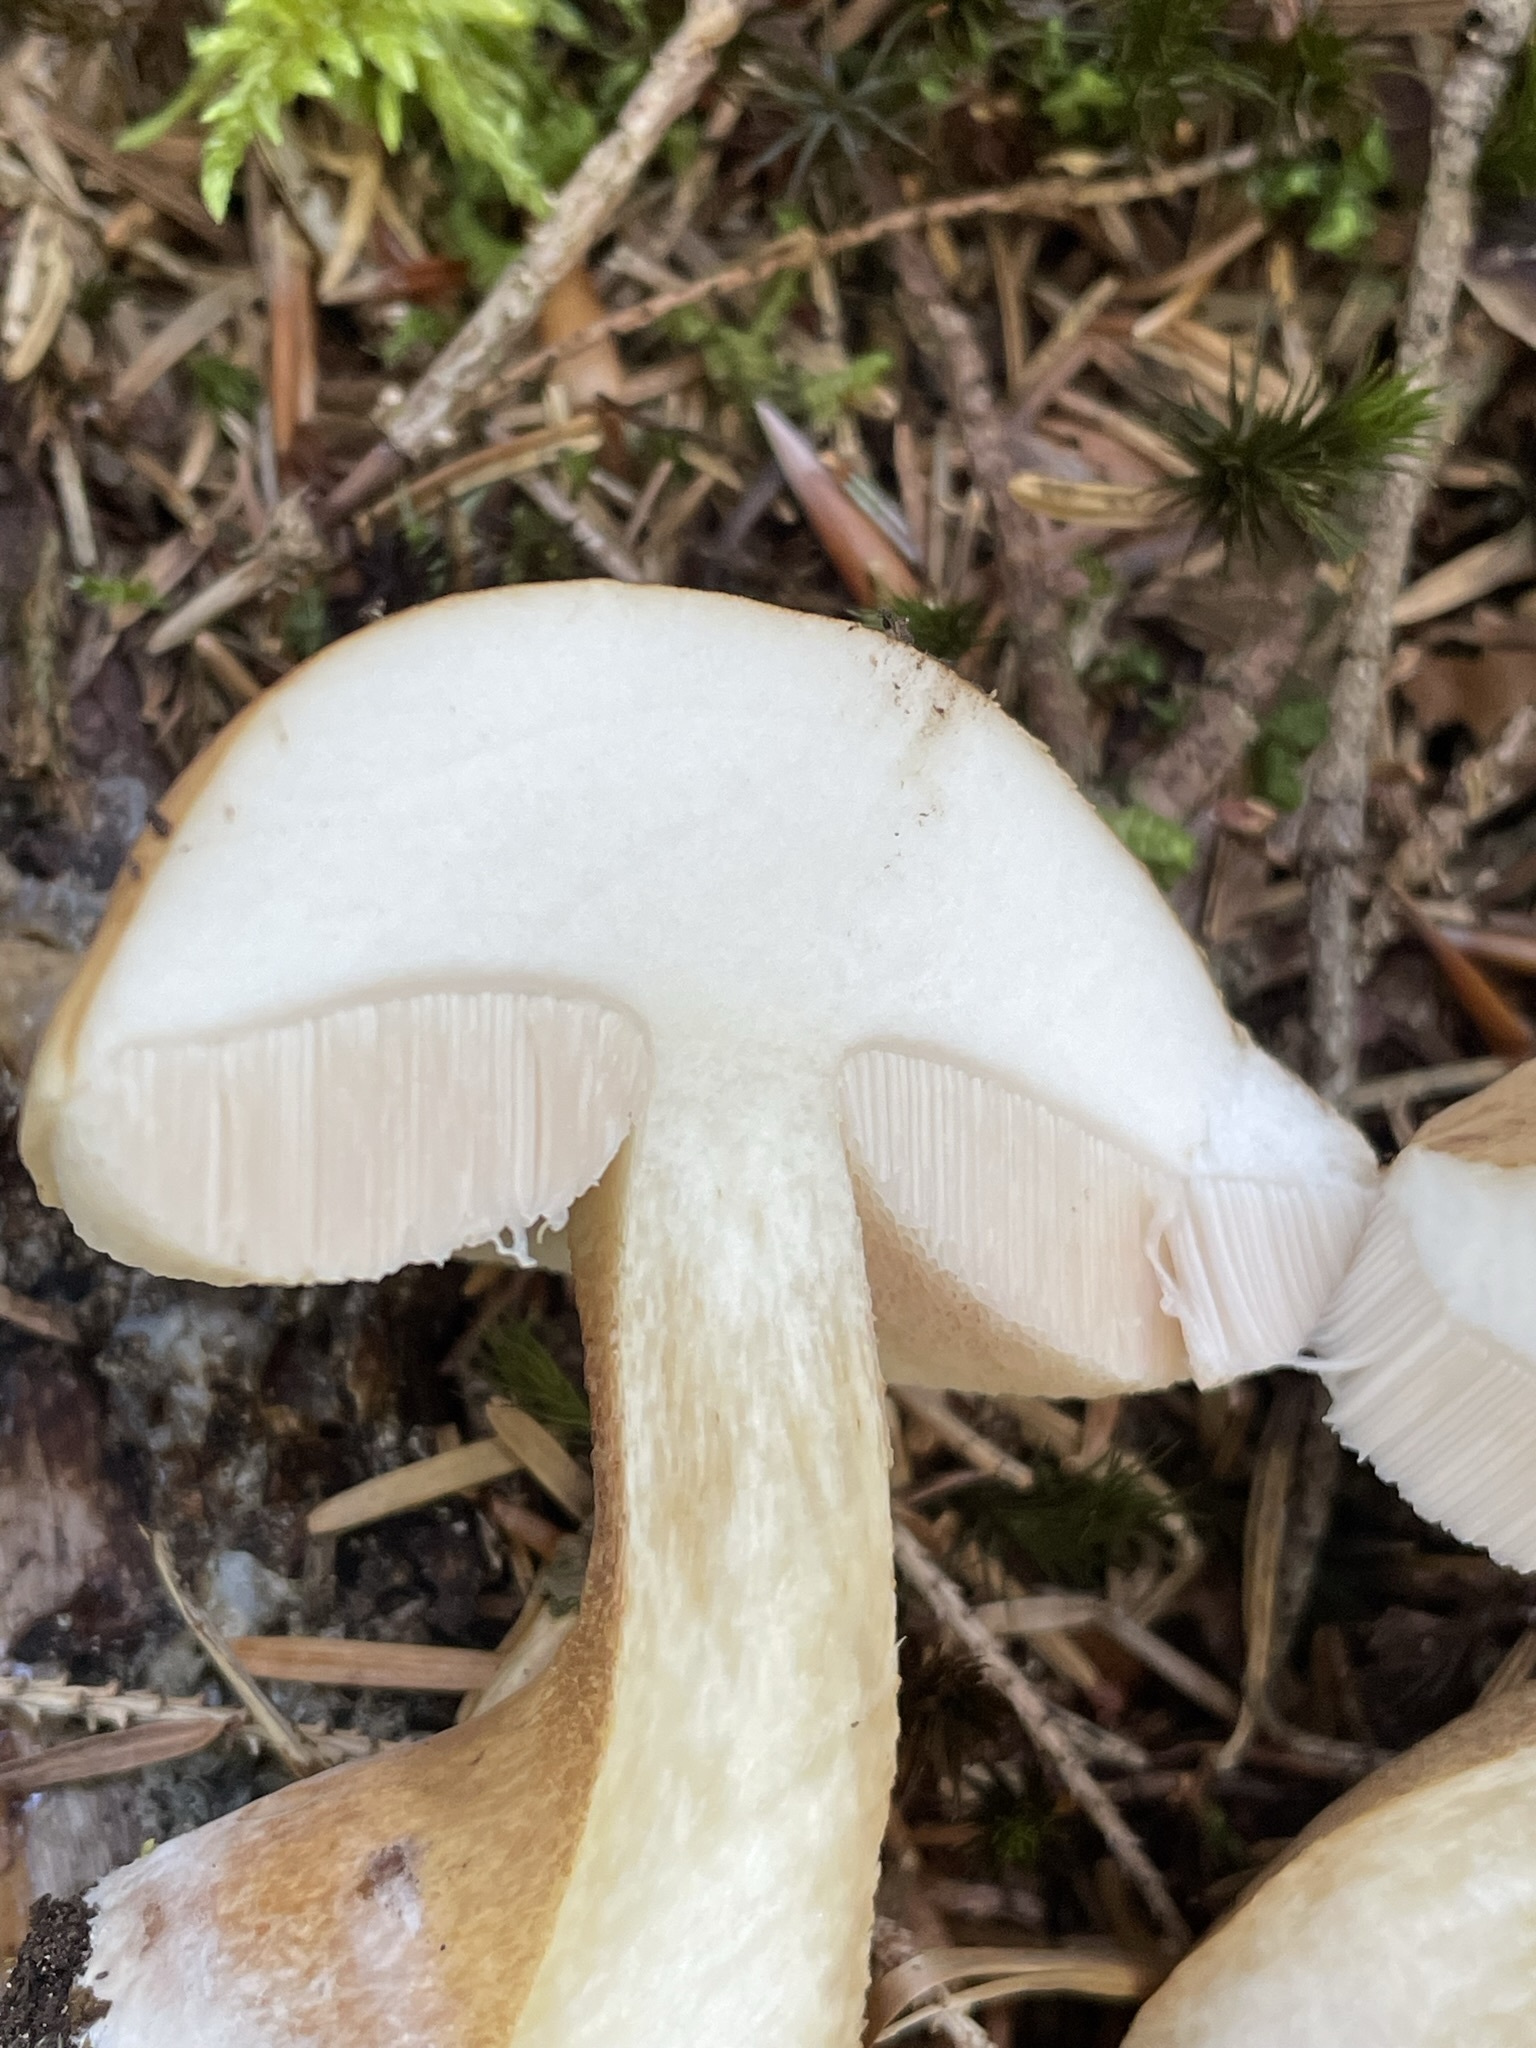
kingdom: Fungi
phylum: Basidiomycota
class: Agaricomycetes
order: Boletales
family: Boletaceae
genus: Tylopilus
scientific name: Tylopilus felleus
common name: Bitter bolete
